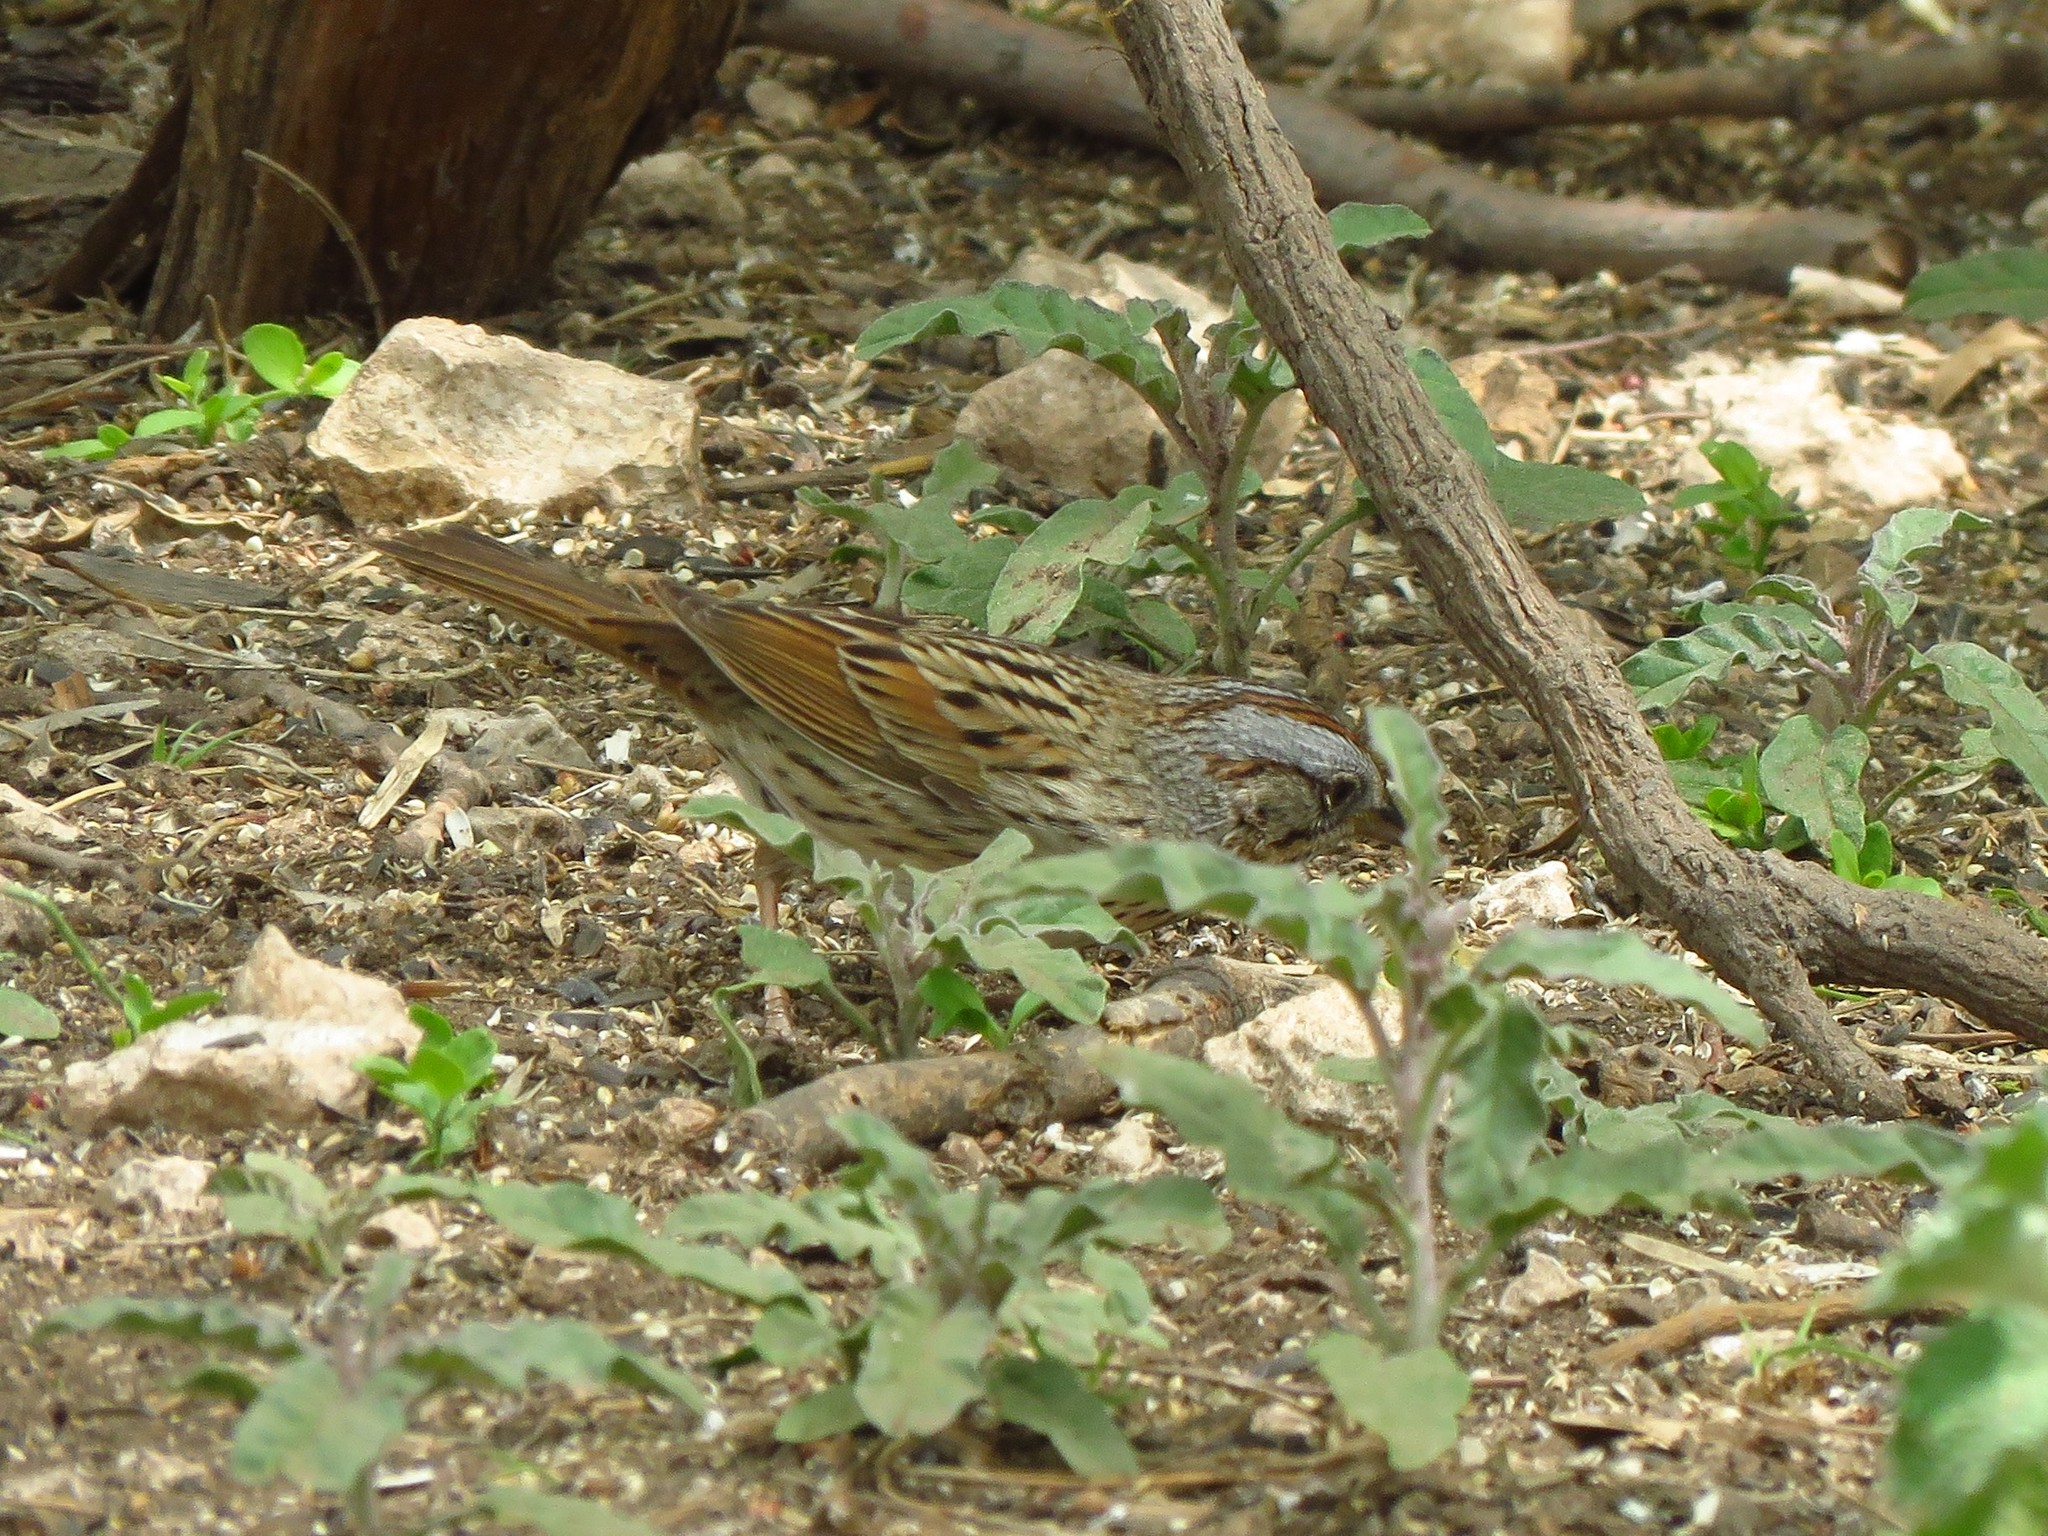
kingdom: Animalia
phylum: Chordata
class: Aves
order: Passeriformes
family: Passerellidae
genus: Melospiza
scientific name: Melospiza lincolnii
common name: Lincoln's sparrow
